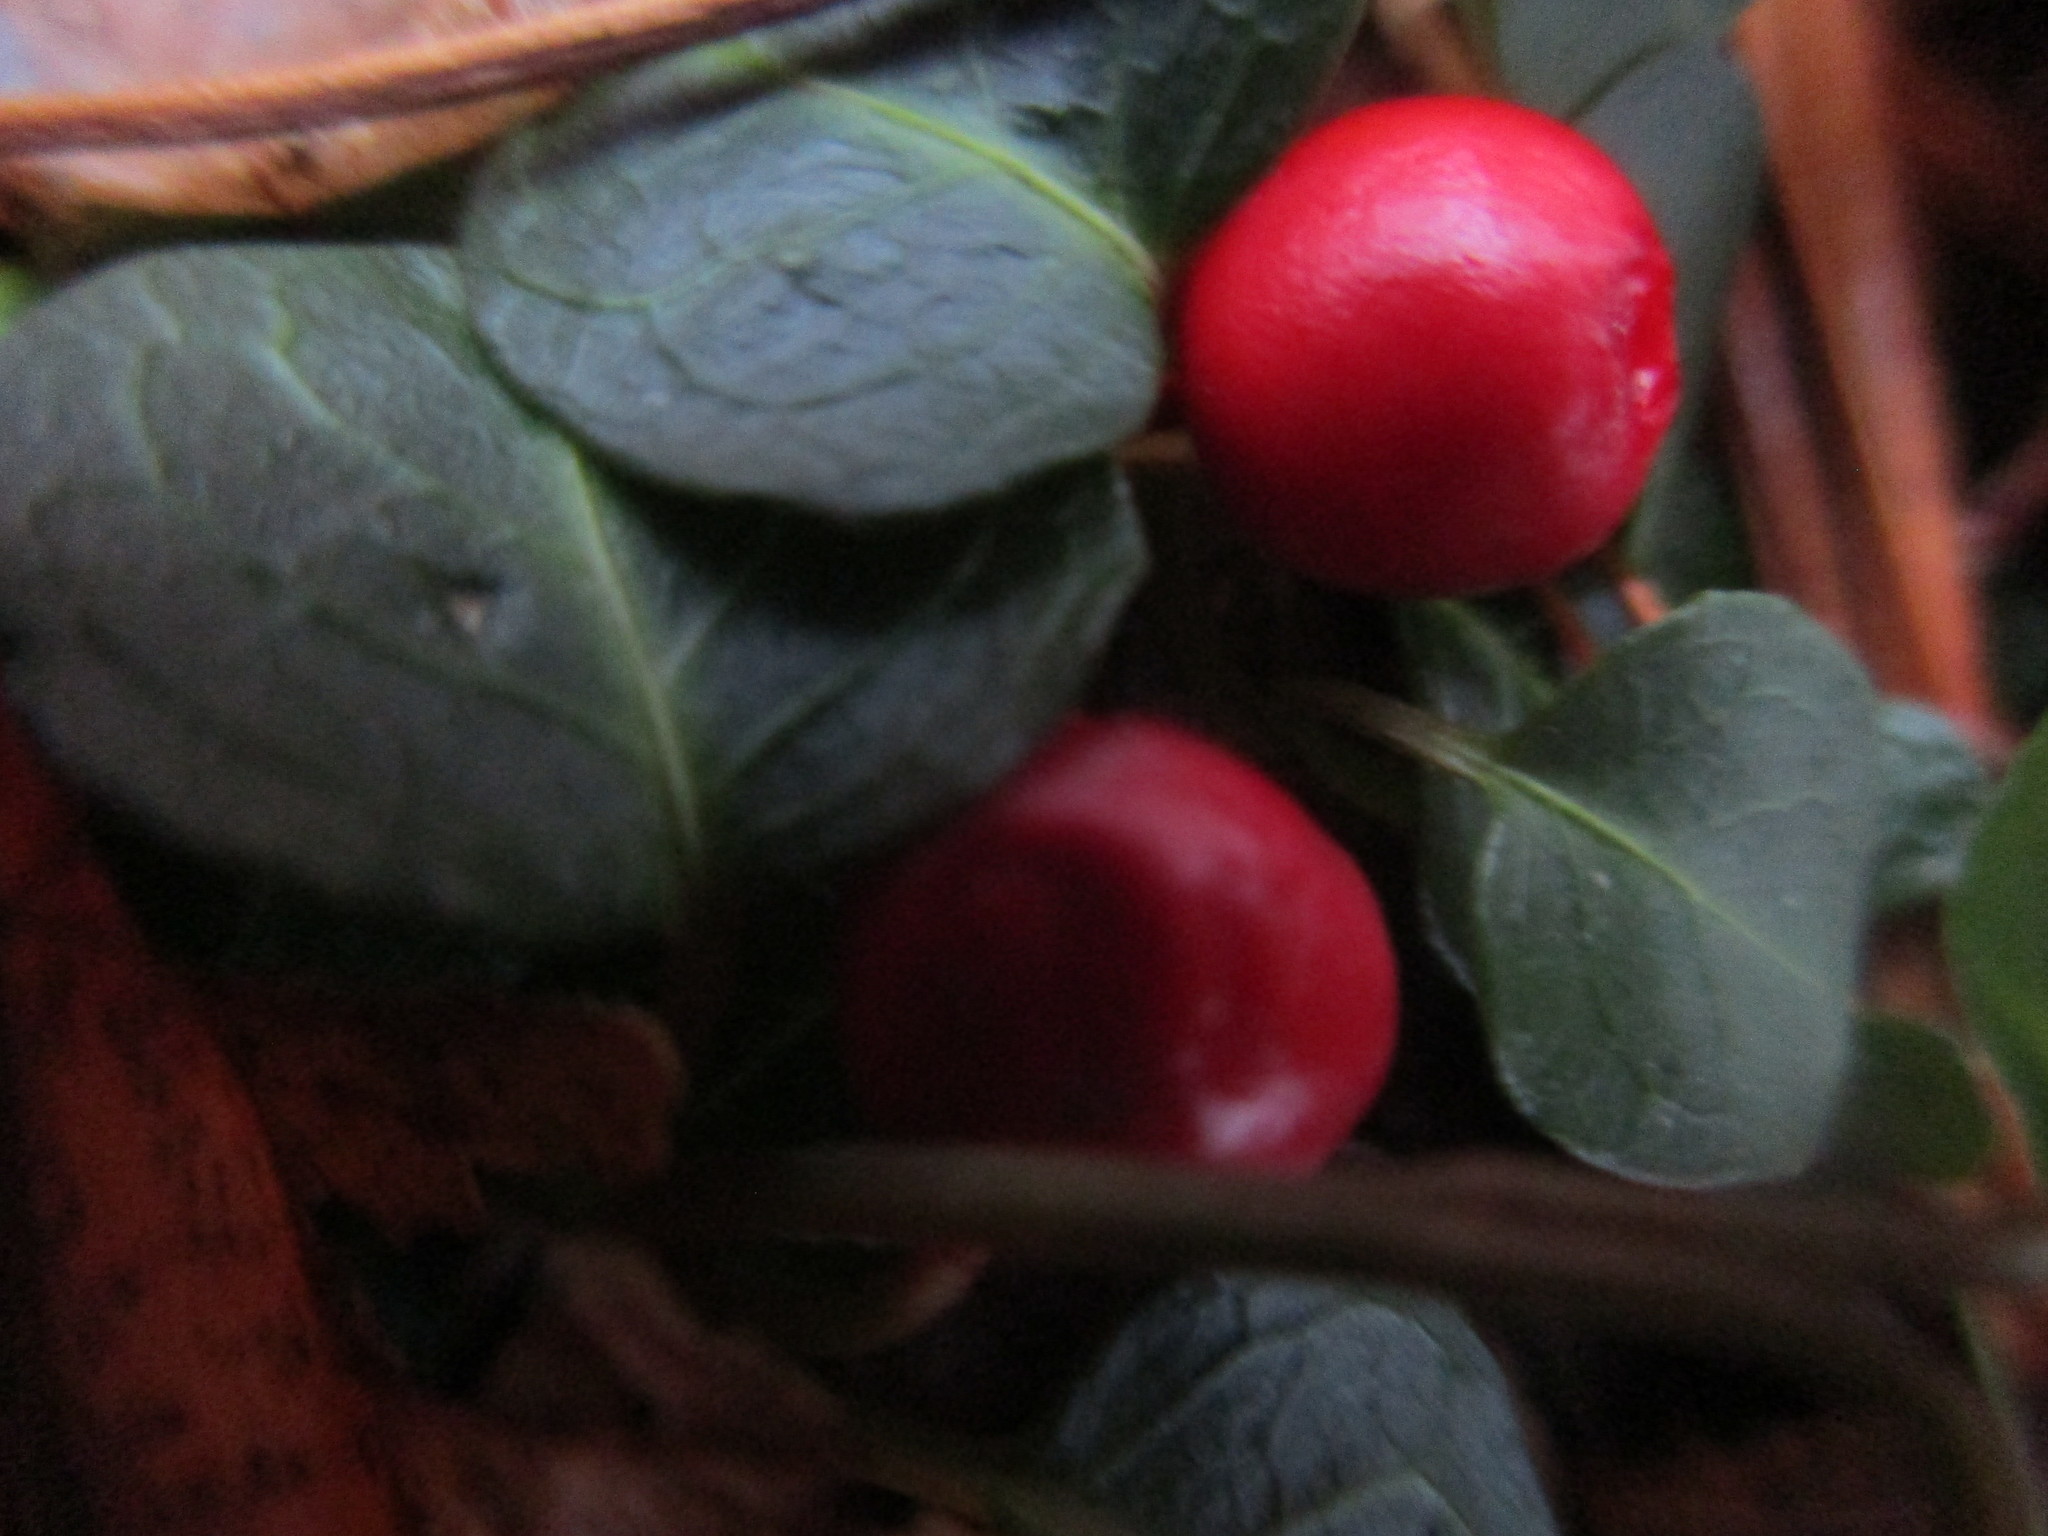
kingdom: Plantae
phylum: Tracheophyta
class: Magnoliopsida
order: Gentianales
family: Rubiaceae
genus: Mitchella
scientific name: Mitchella repens
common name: Partridge-berry
